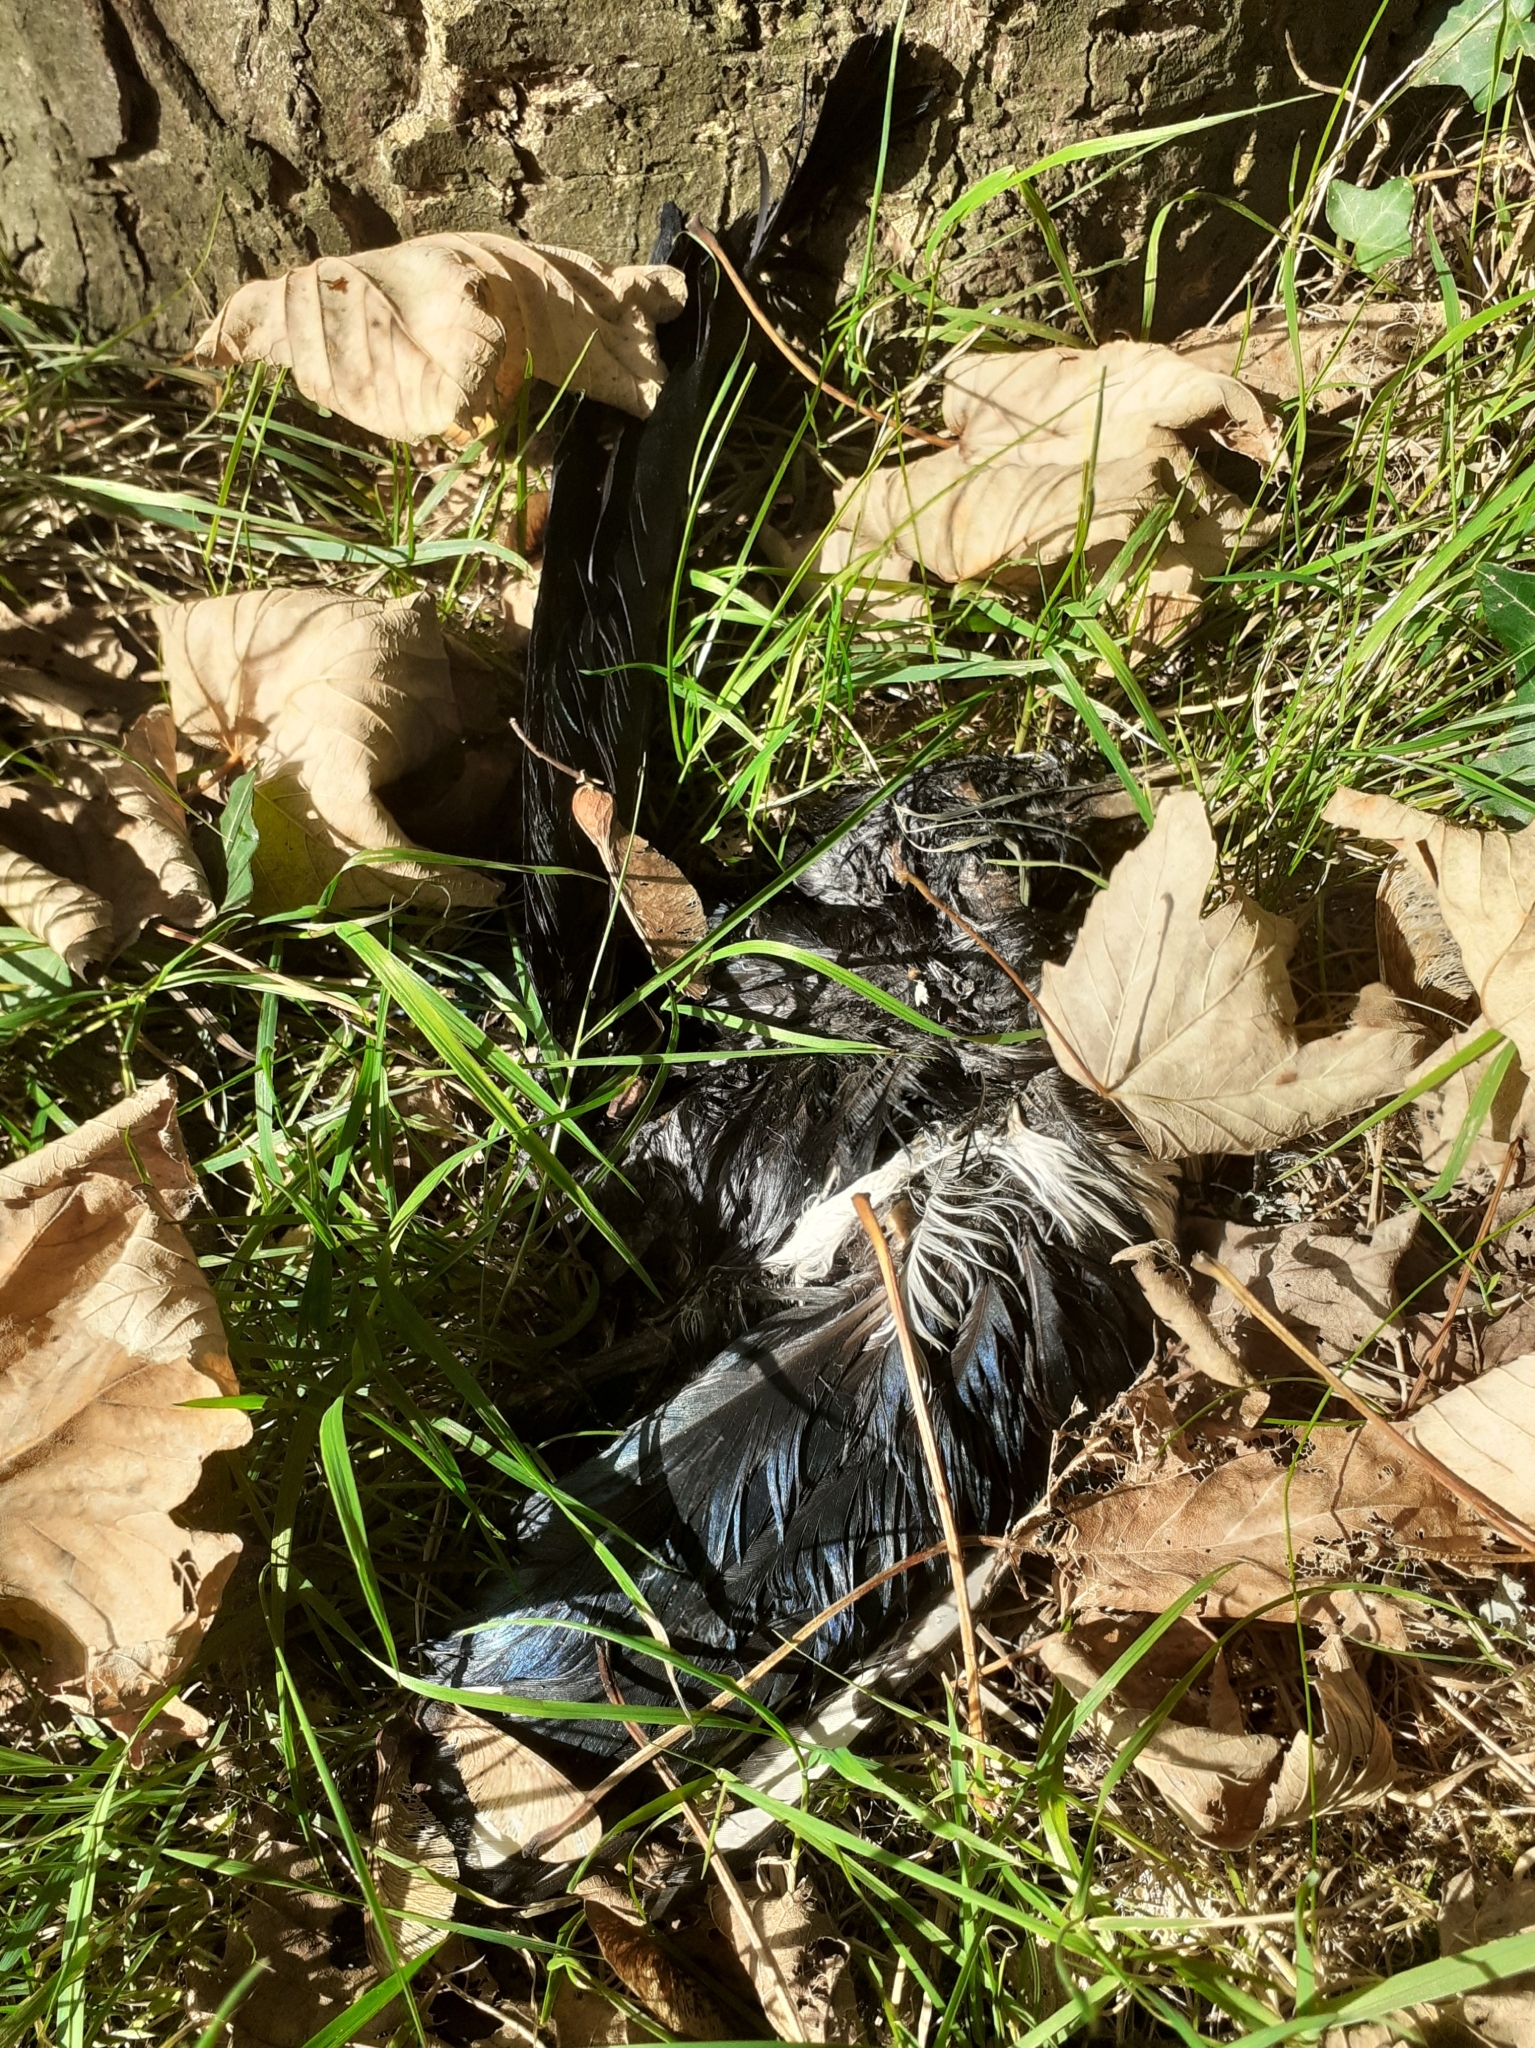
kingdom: Animalia
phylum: Chordata
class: Aves
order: Passeriformes
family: Corvidae
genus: Pica
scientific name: Pica pica
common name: Eurasian magpie
